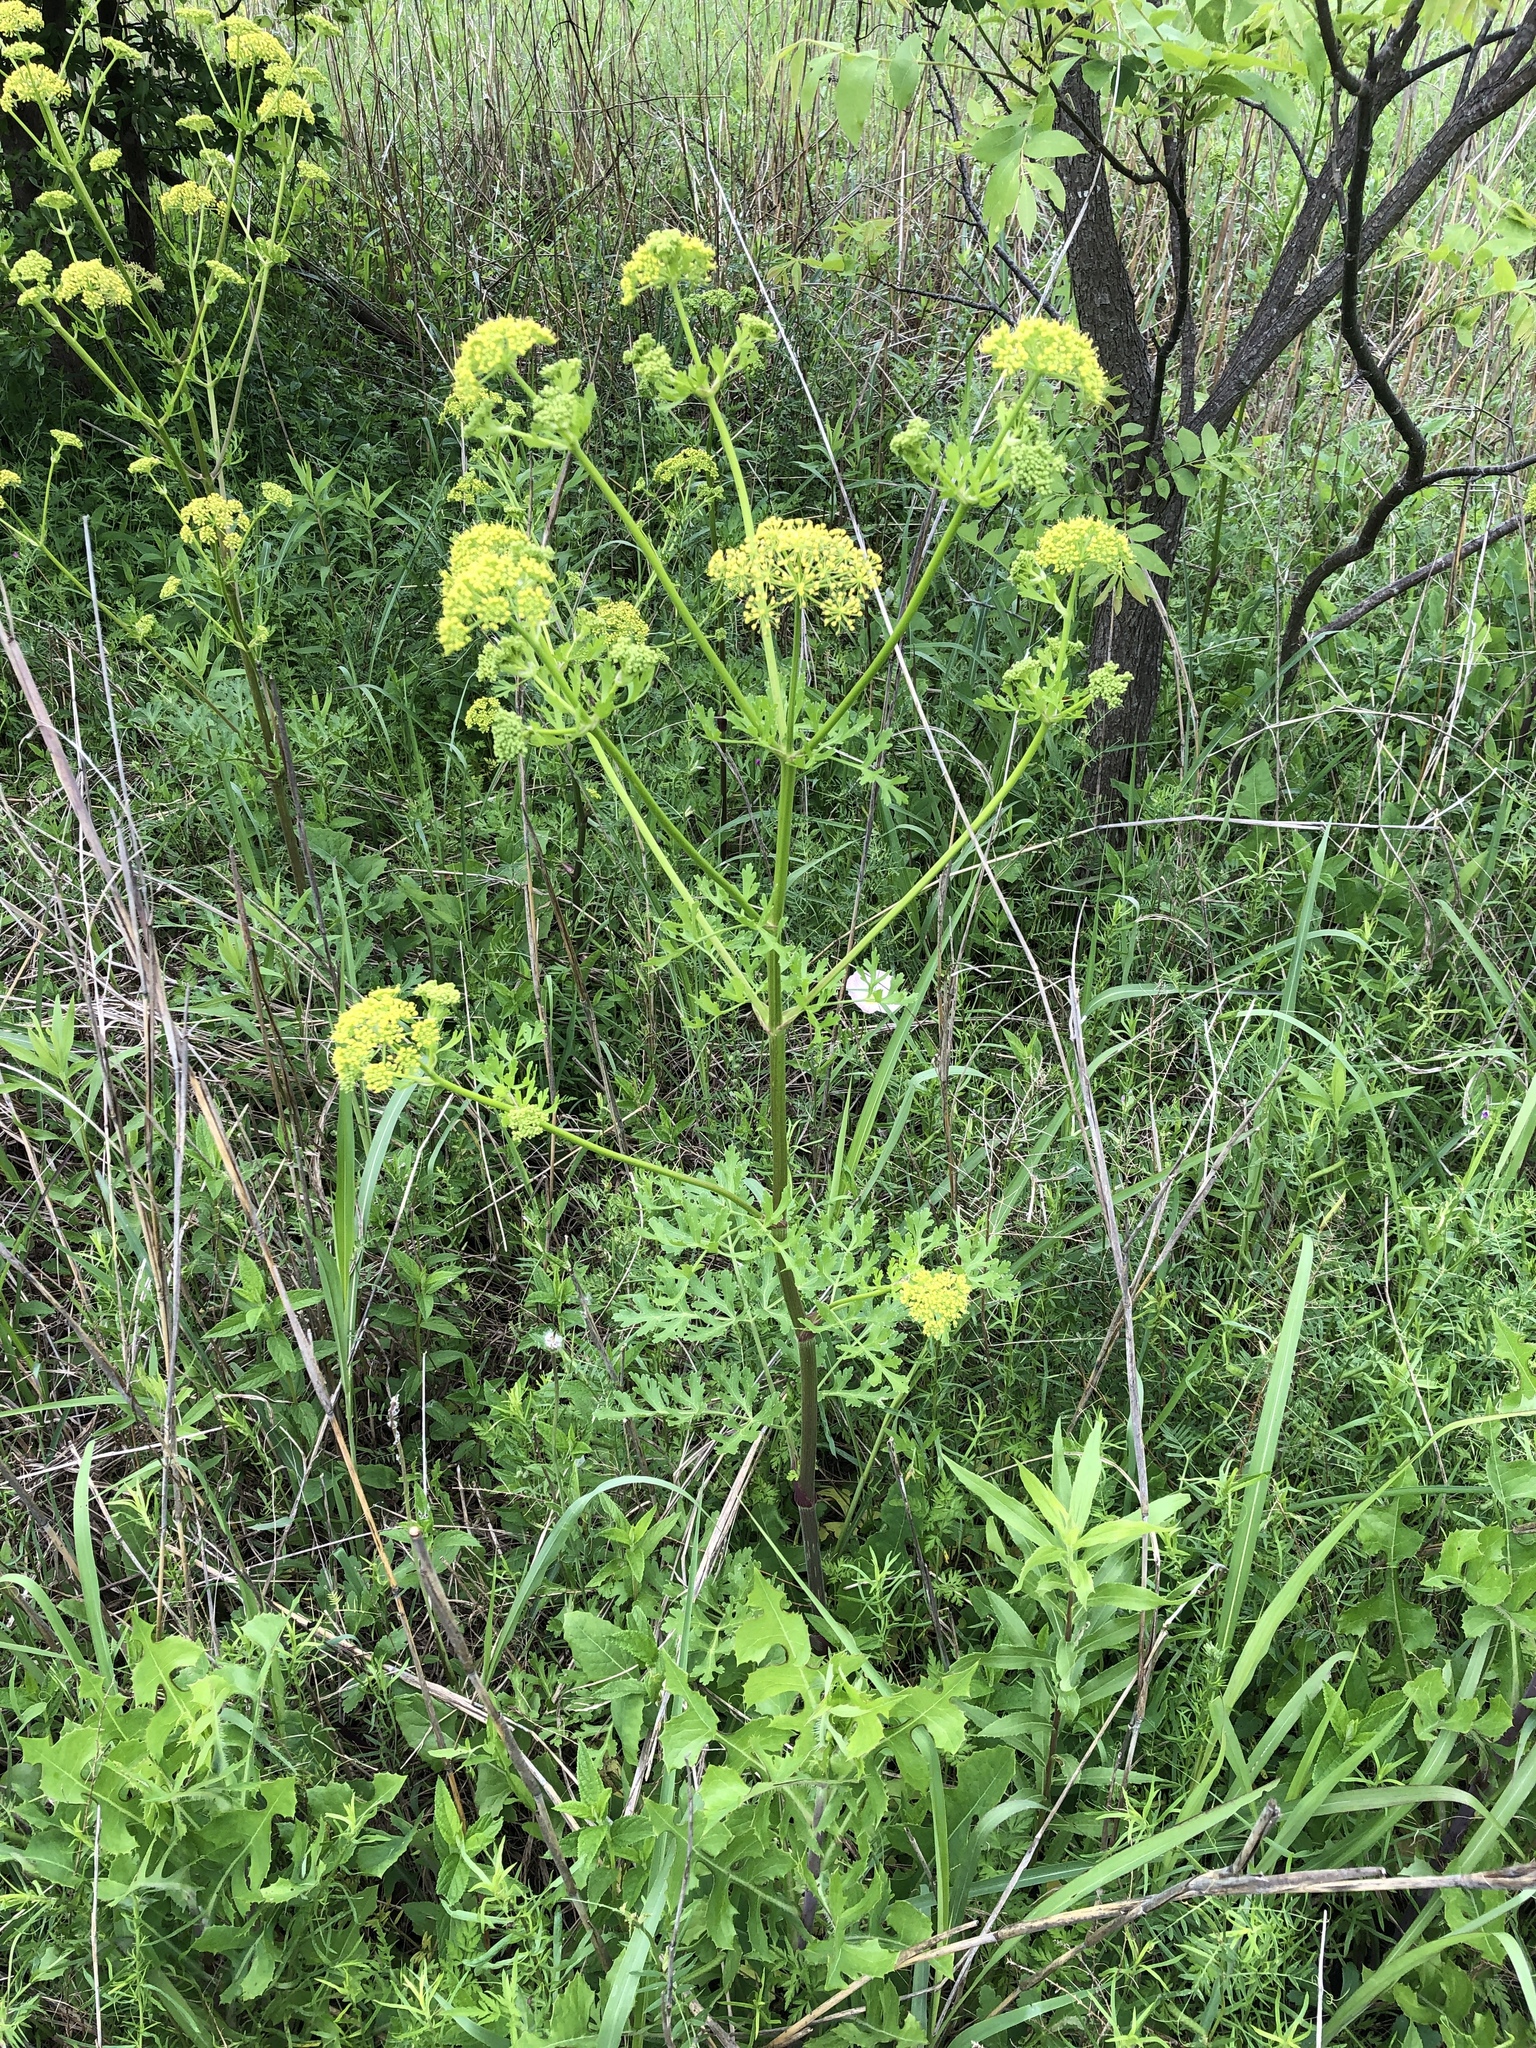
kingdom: Plantae
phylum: Tracheophyta
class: Magnoliopsida
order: Apiales
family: Apiaceae
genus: Polytaenia
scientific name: Polytaenia texana
